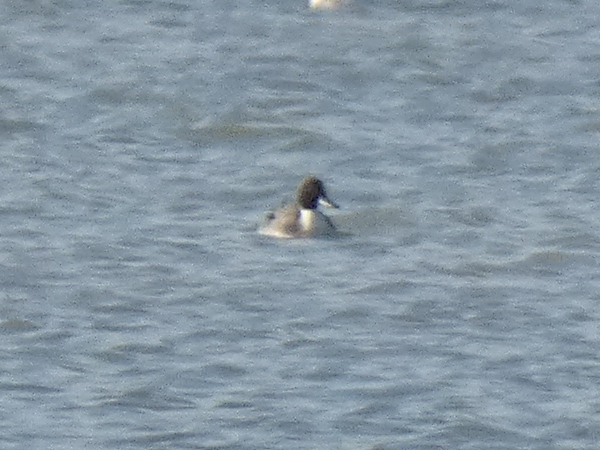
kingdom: Animalia
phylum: Chordata
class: Aves
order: Anseriformes
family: Anatidae
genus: Anas
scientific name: Anas acuta
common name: Northern pintail
